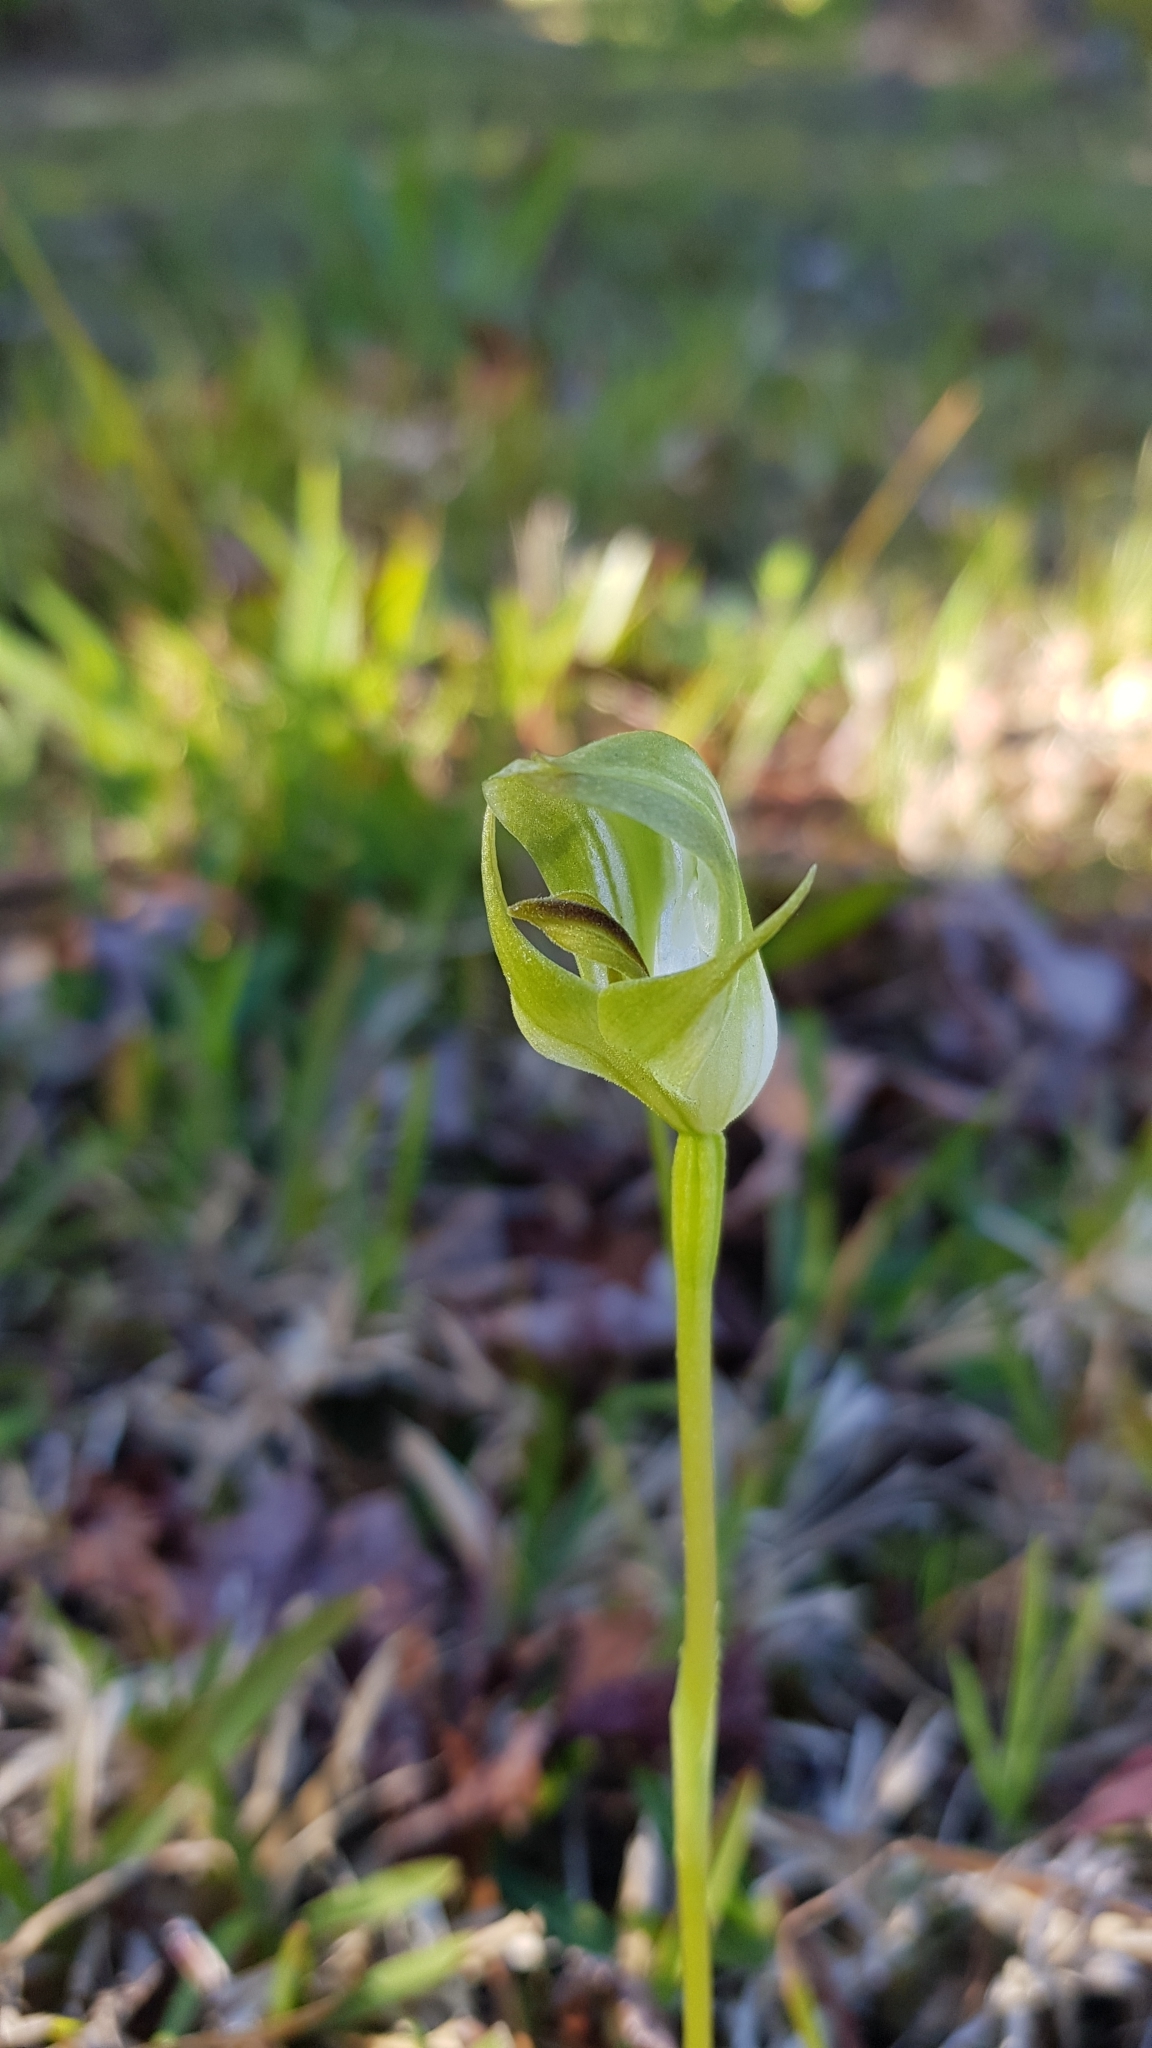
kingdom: Plantae
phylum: Tracheophyta
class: Liliopsida
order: Asparagales
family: Orchidaceae
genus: Pterostylis
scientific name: Pterostylis curta
